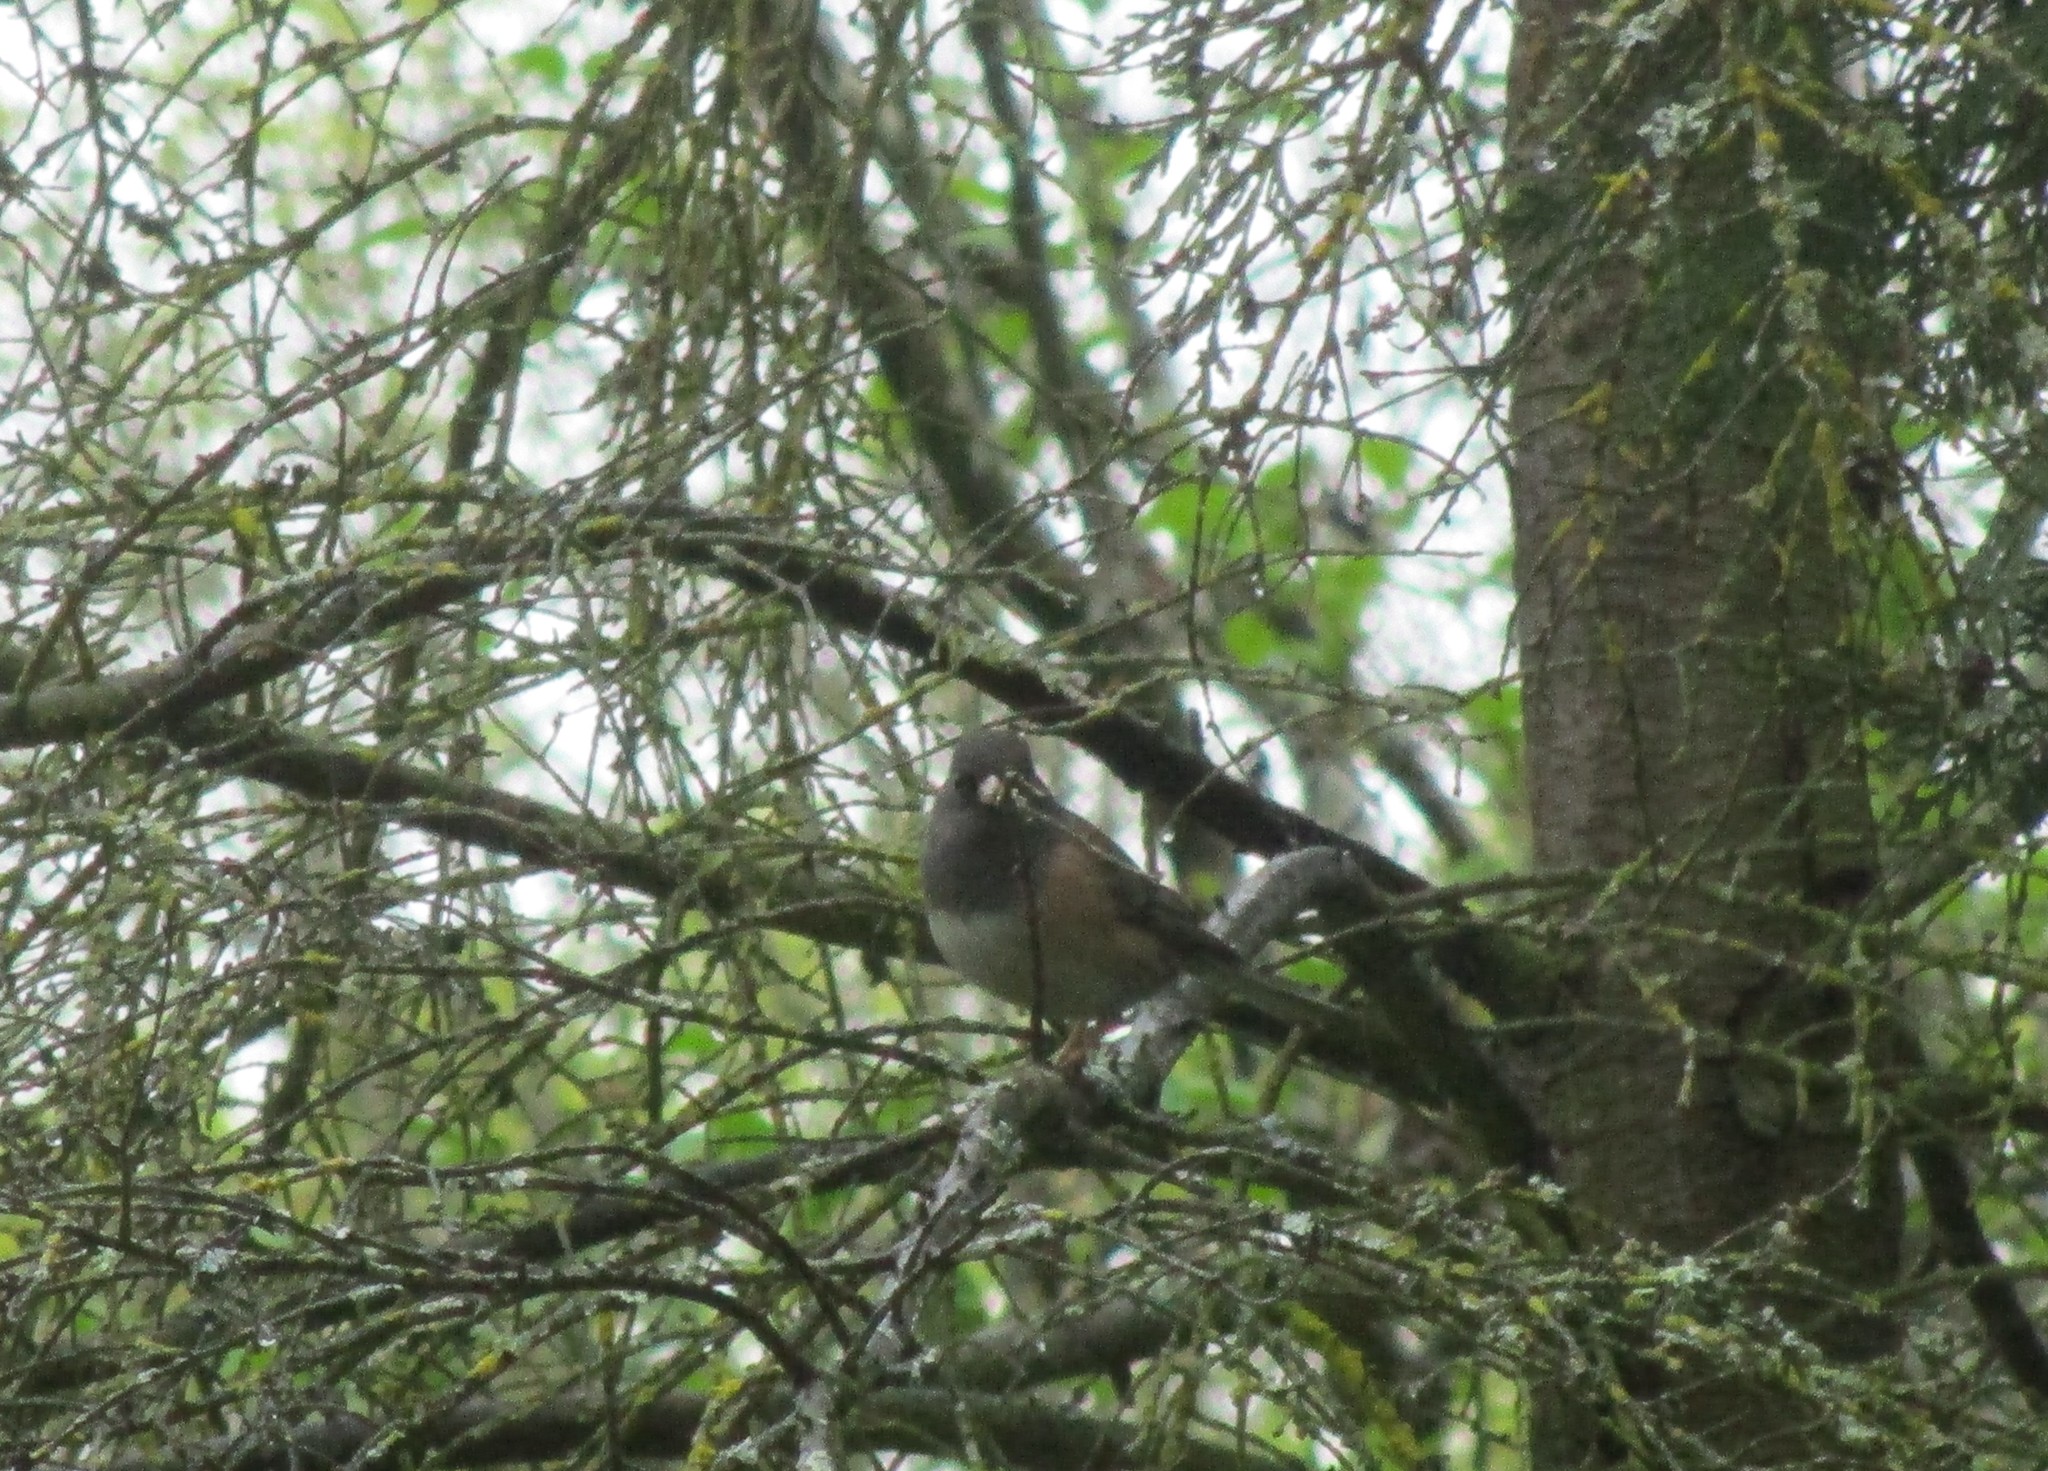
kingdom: Animalia
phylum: Chordata
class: Aves
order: Passeriformes
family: Passerellidae
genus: Junco
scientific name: Junco hyemalis
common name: Dark-eyed junco
